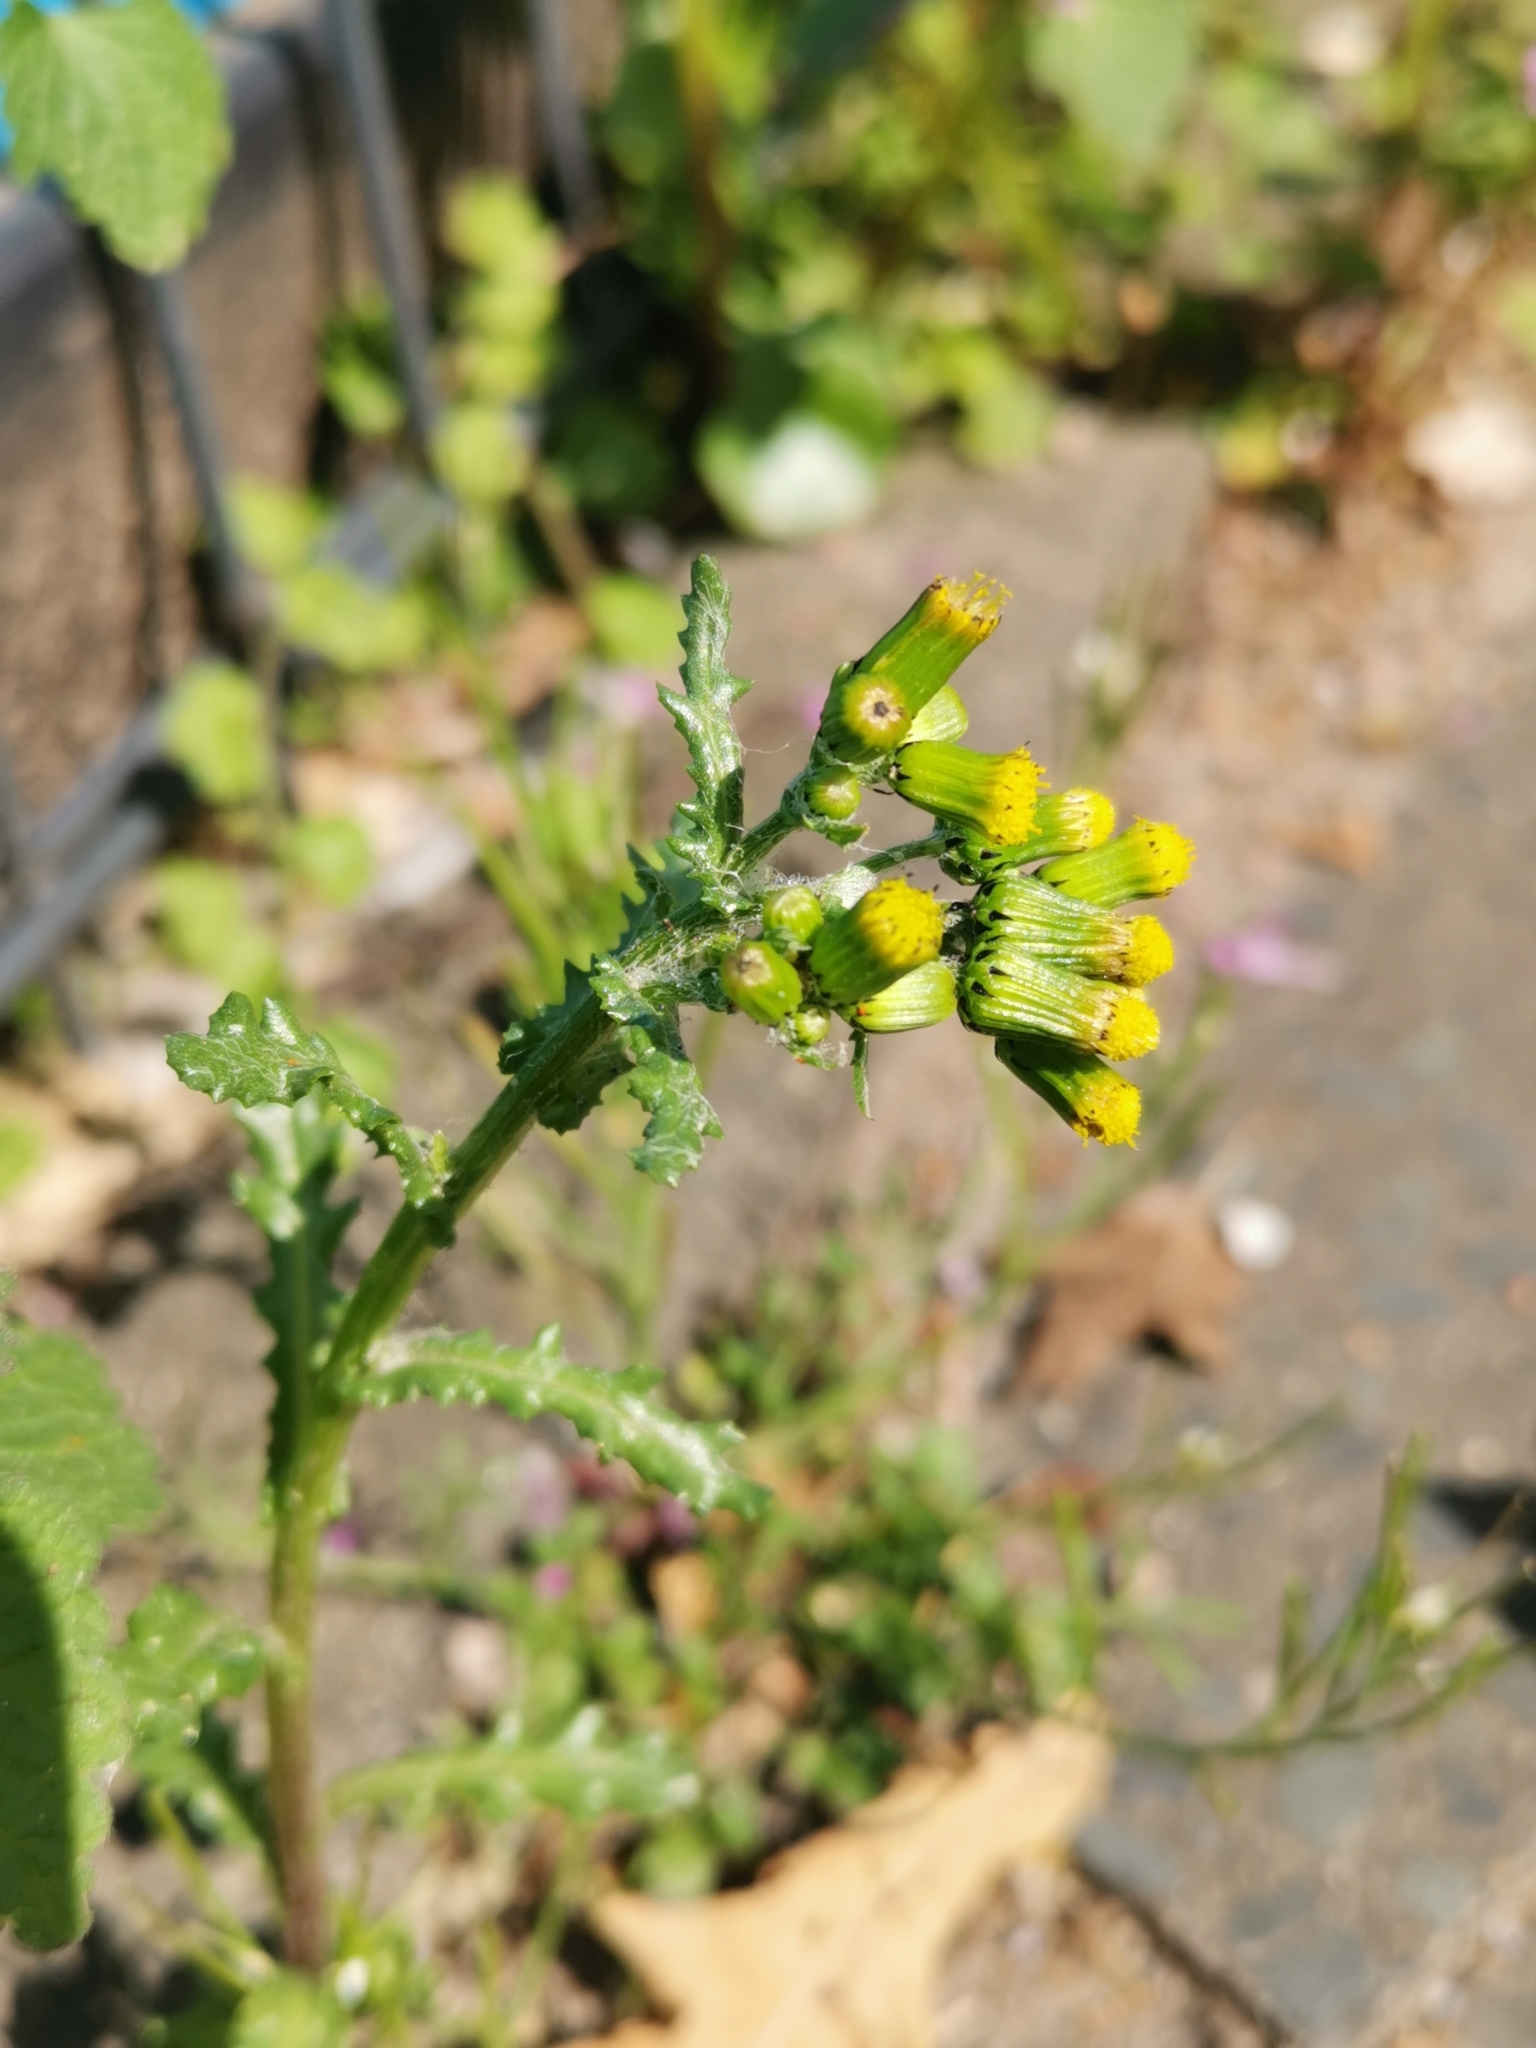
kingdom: Plantae
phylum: Tracheophyta
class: Magnoliopsida
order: Asterales
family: Asteraceae
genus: Senecio
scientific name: Senecio vulgaris
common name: Old-man-in-the-spring
